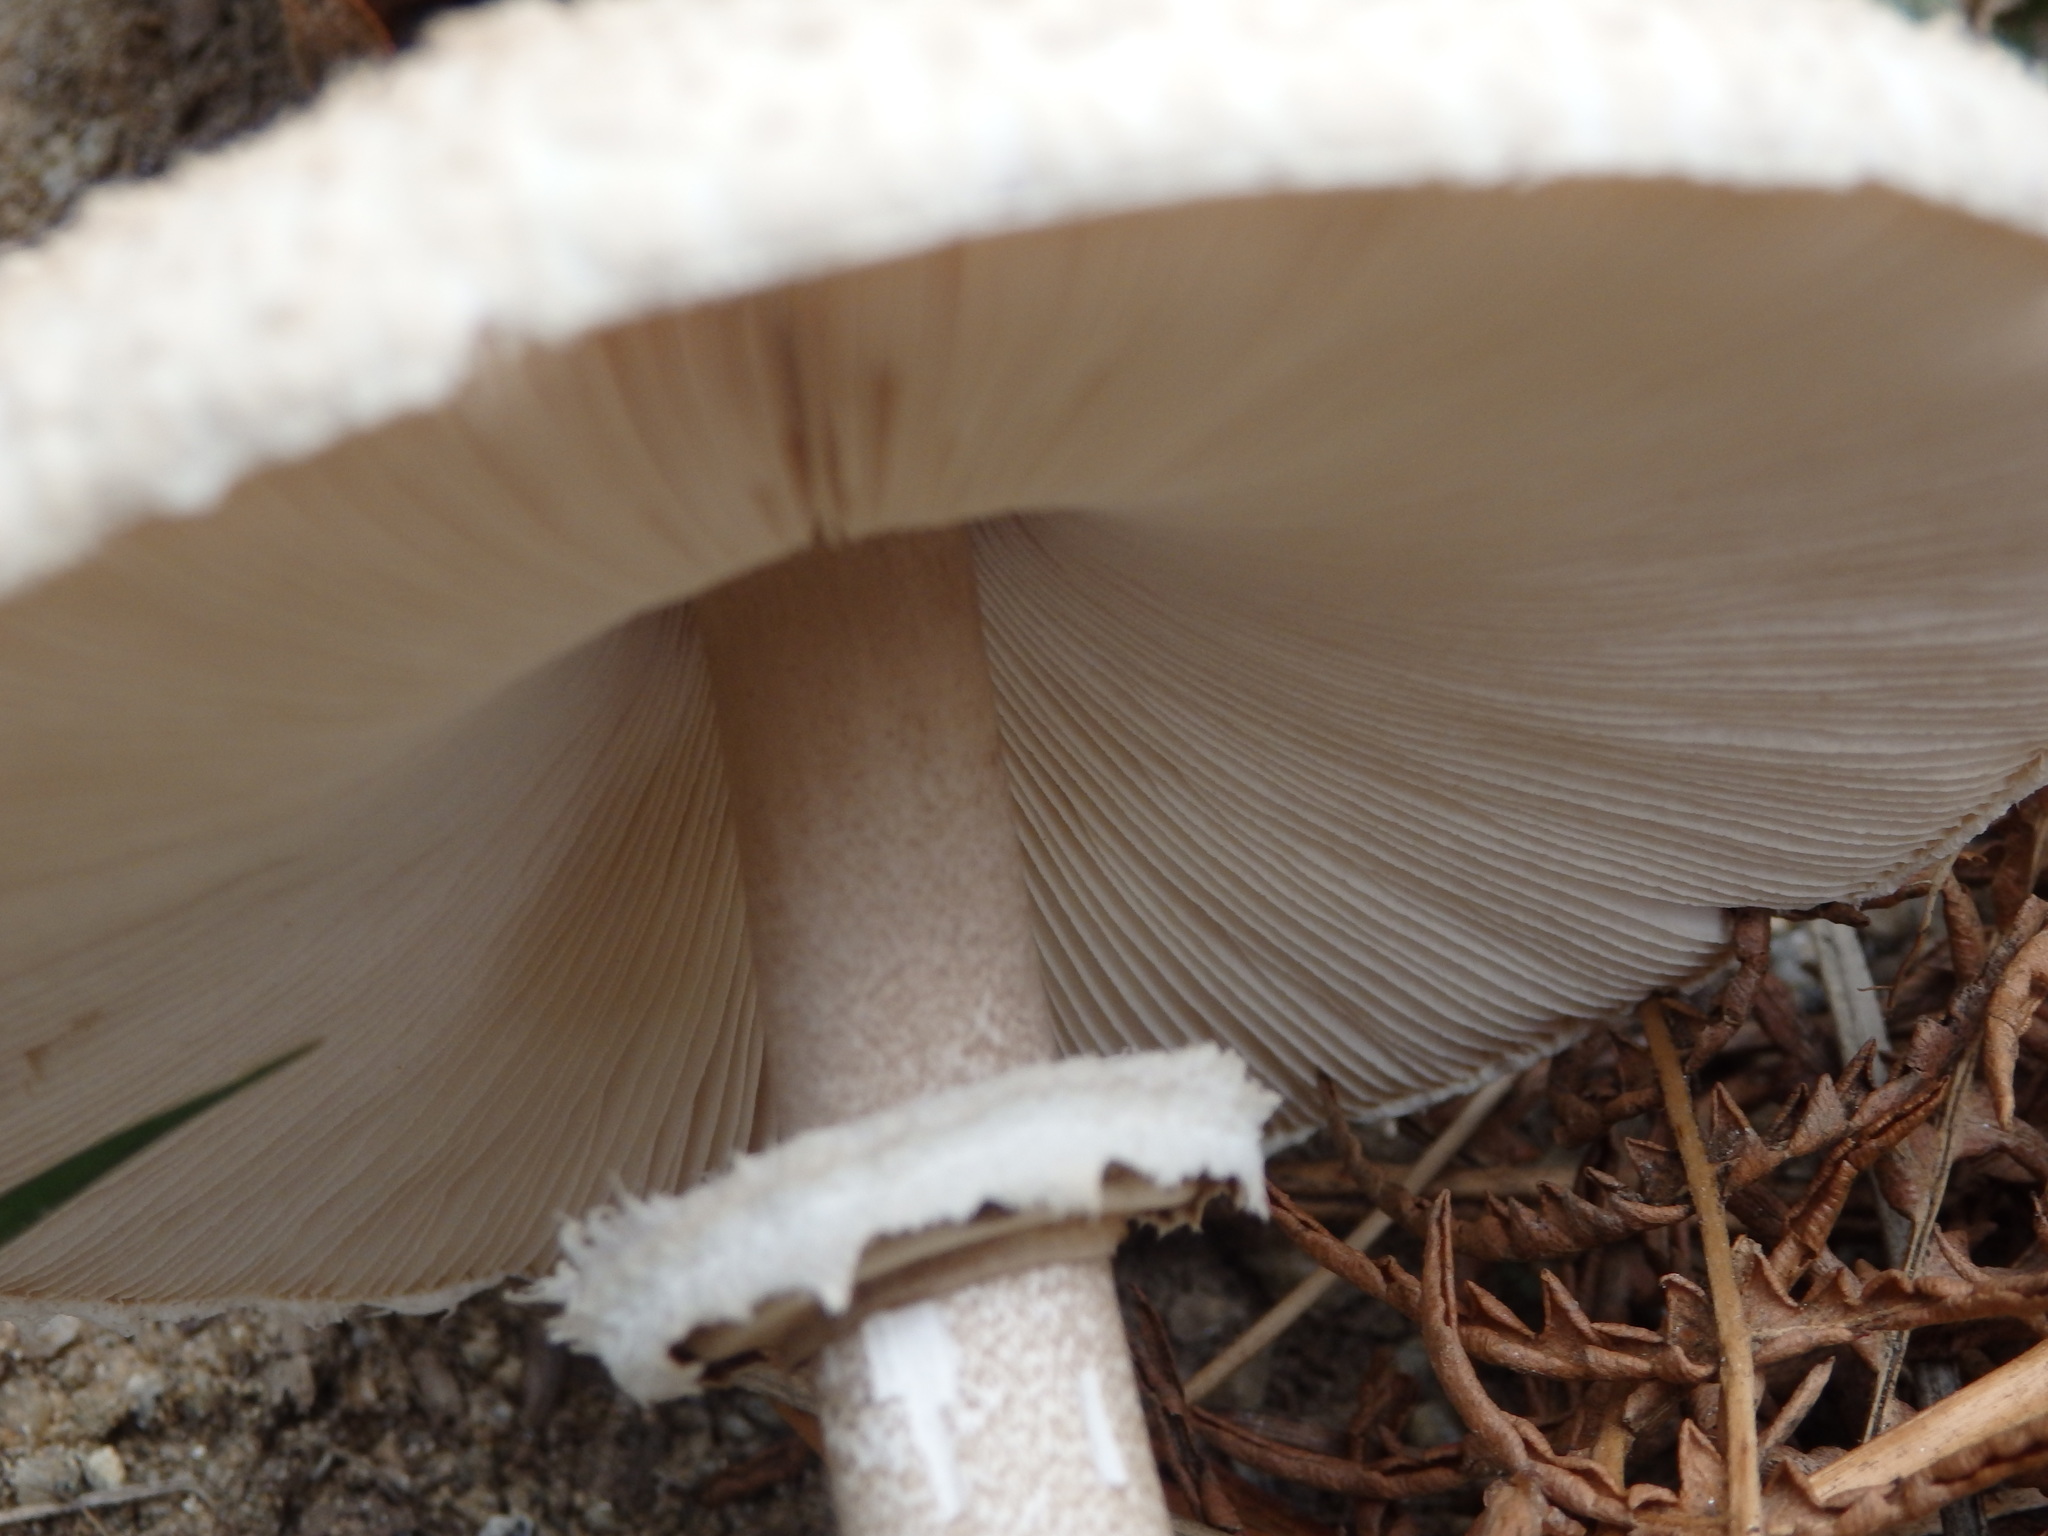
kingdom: Fungi
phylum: Basidiomycota
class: Agaricomycetes
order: Agaricales
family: Agaricaceae
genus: Macrolepiota
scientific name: Macrolepiota procera
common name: Parasol
